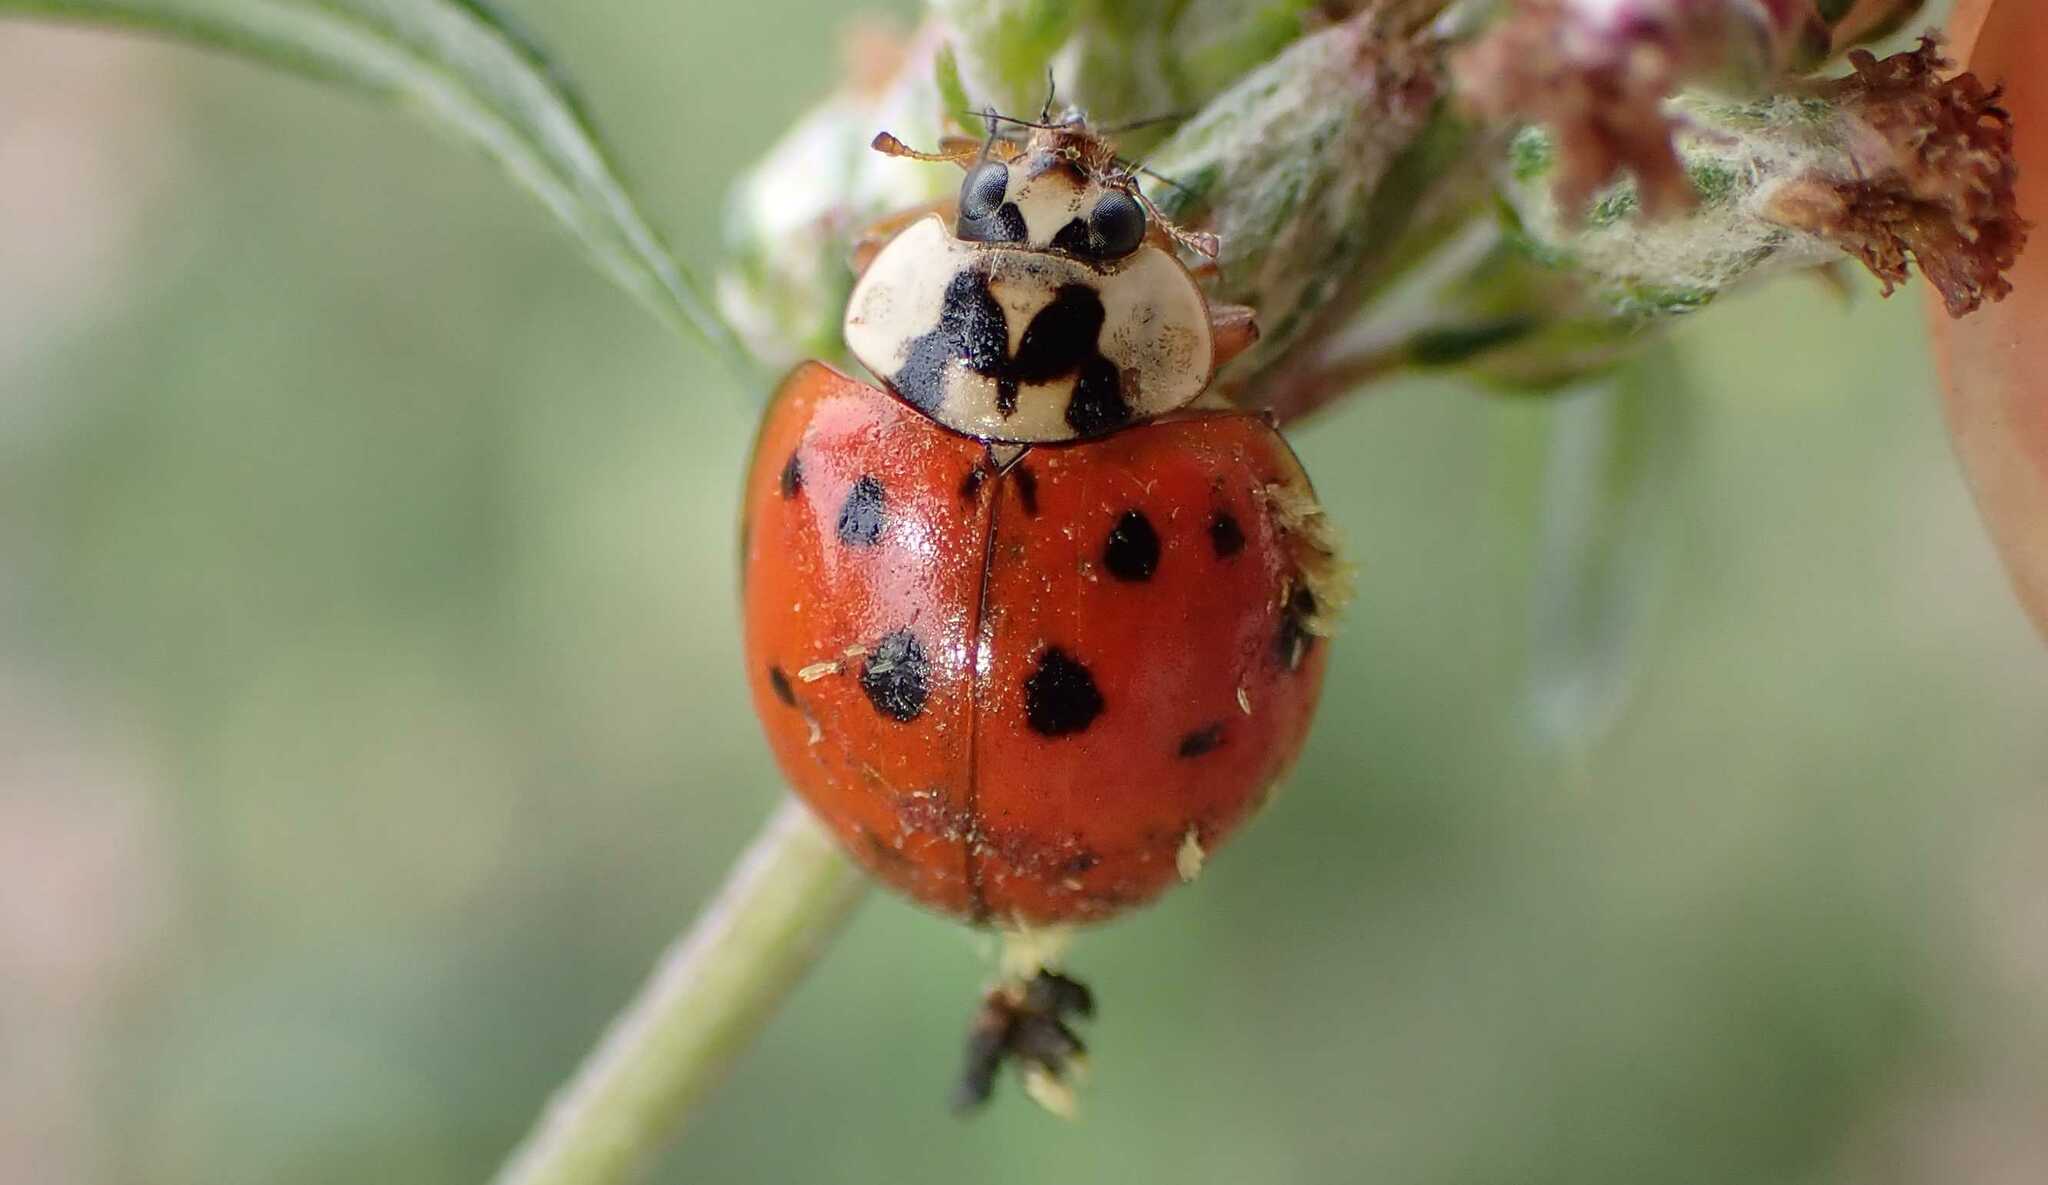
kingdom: Animalia
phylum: Arthropoda
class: Insecta
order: Coleoptera
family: Coccinellidae
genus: Harmonia
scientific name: Harmonia axyridis
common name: Harlequin ladybird
